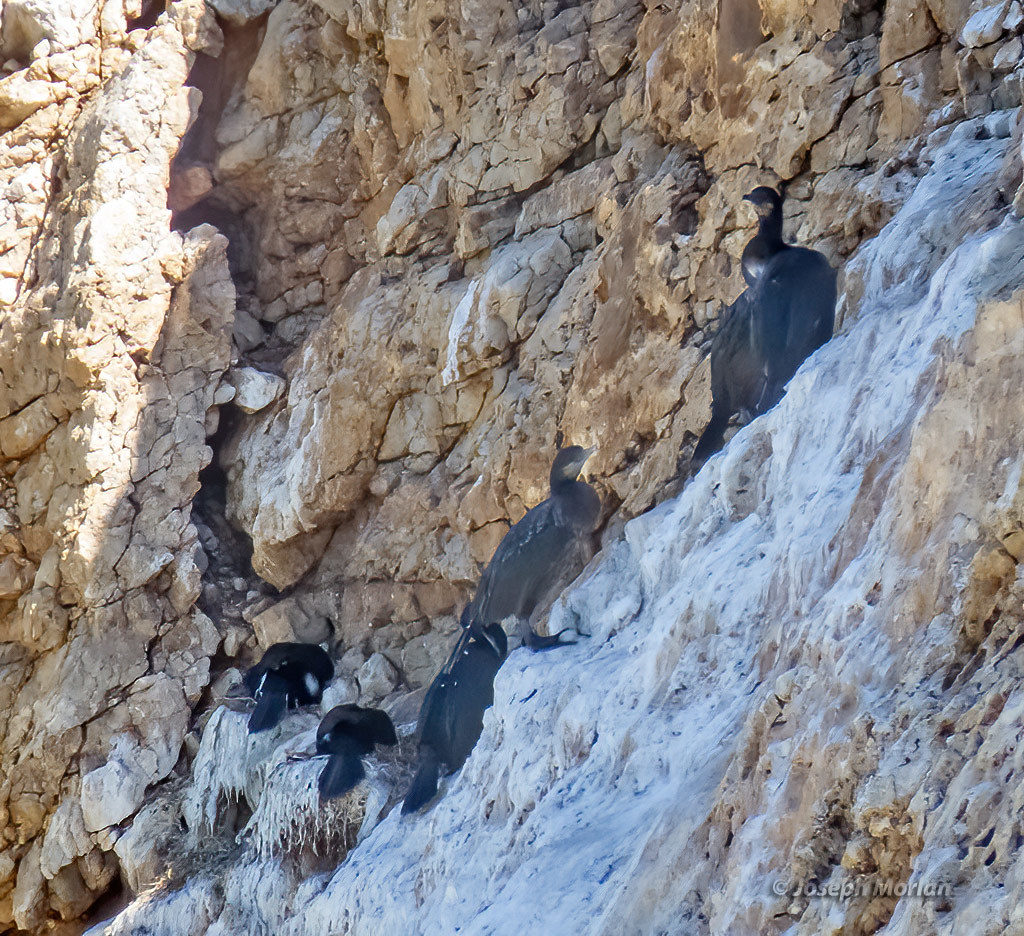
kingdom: Animalia
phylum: Chordata
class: Aves
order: Suliformes
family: Phalacrocoracidae
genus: Urile
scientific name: Urile penicillatus
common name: Brandt's cormorant
